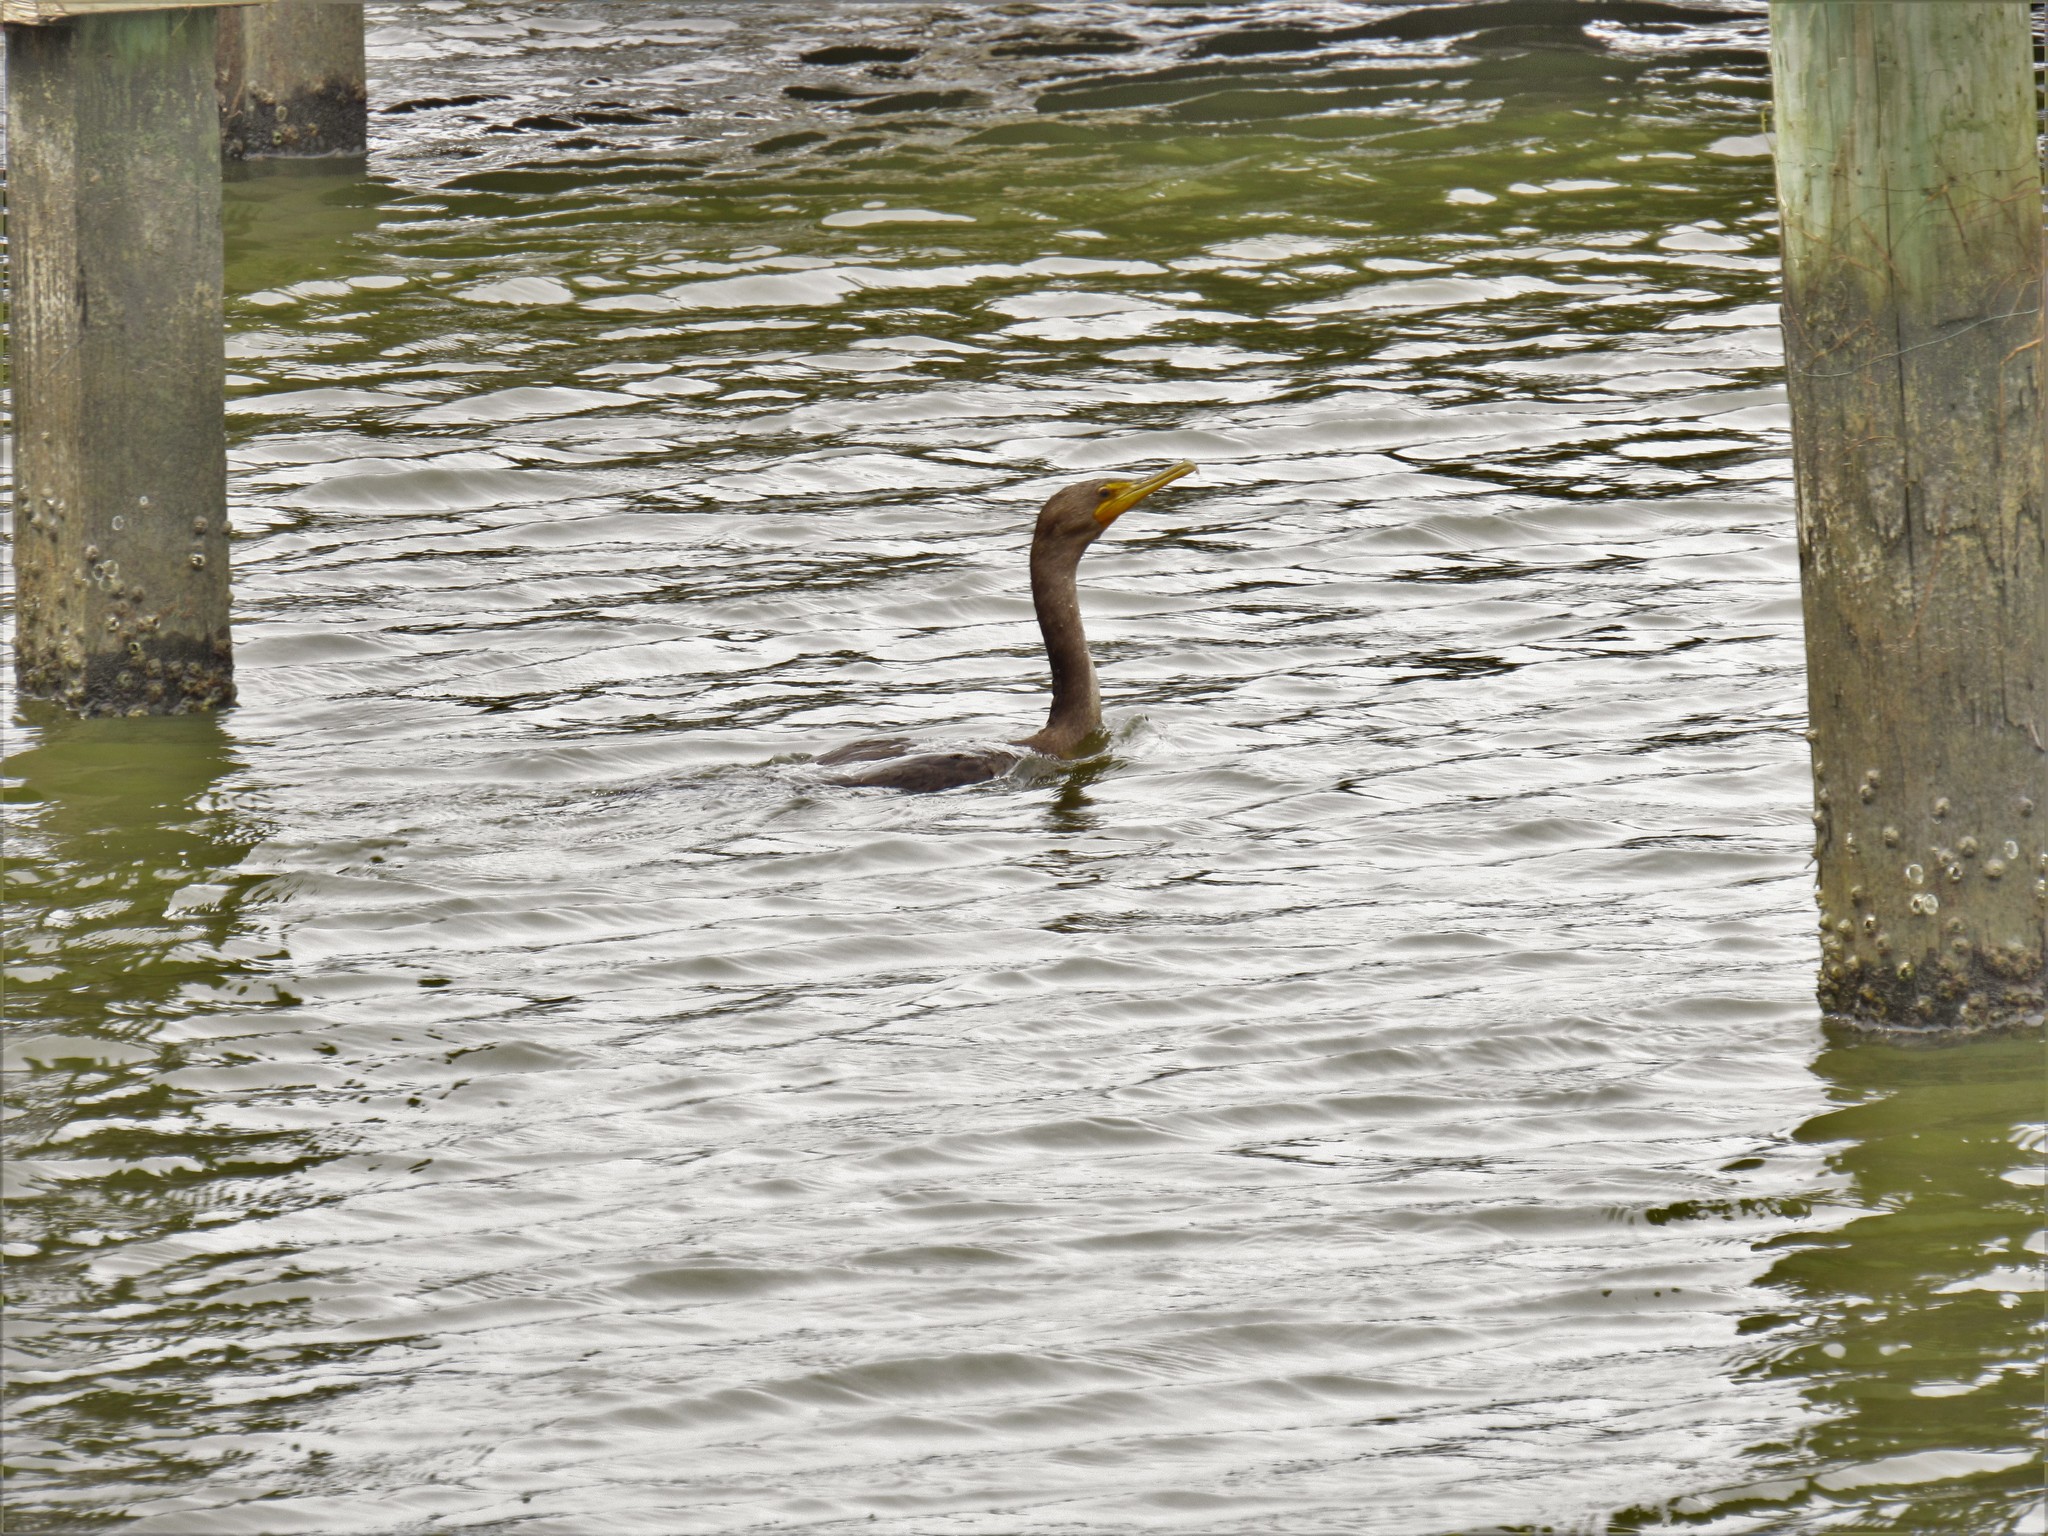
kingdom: Animalia
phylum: Chordata
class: Aves
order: Suliformes
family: Phalacrocoracidae
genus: Phalacrocorax
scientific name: Phalacrocorax auritus
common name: Double-crested cormorant
